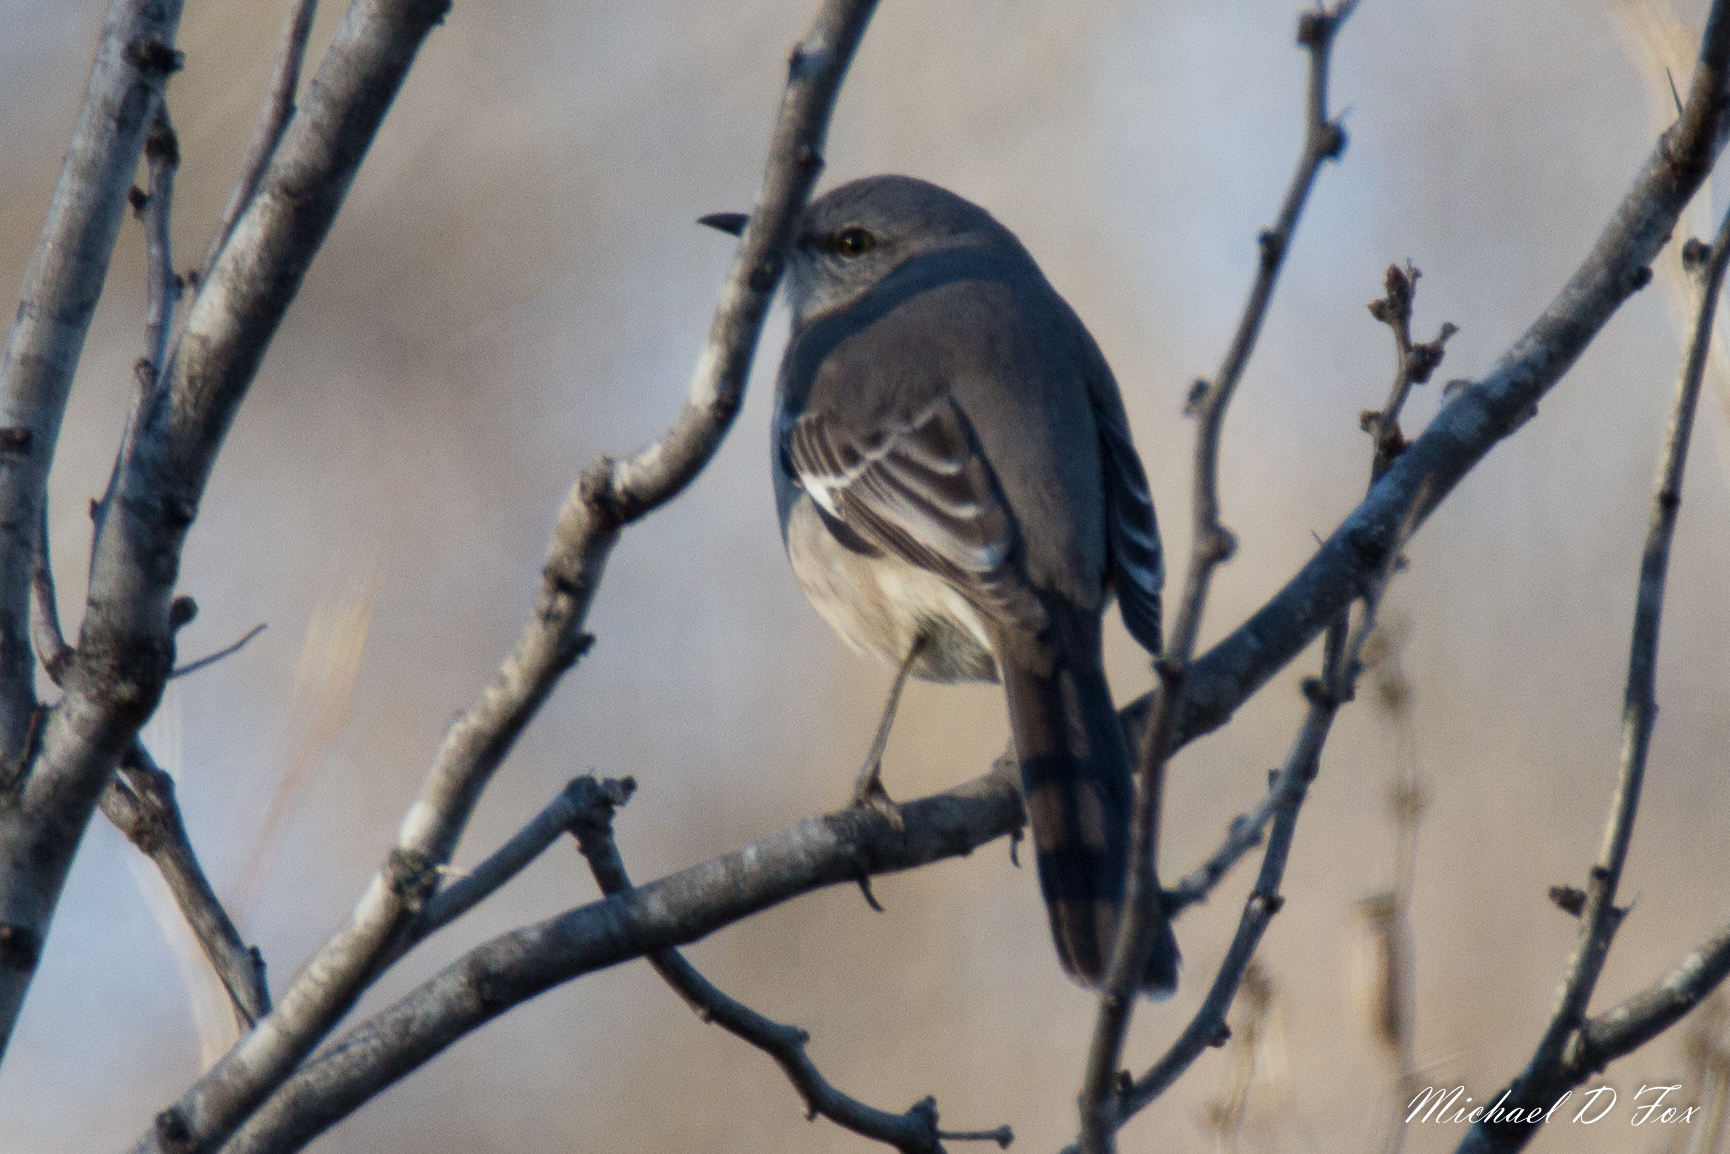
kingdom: Animalia
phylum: Chordata
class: Aves
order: Passeriformes
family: Mimidae
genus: Mimus
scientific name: Mimus polyglottos
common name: Northern mockingbird
